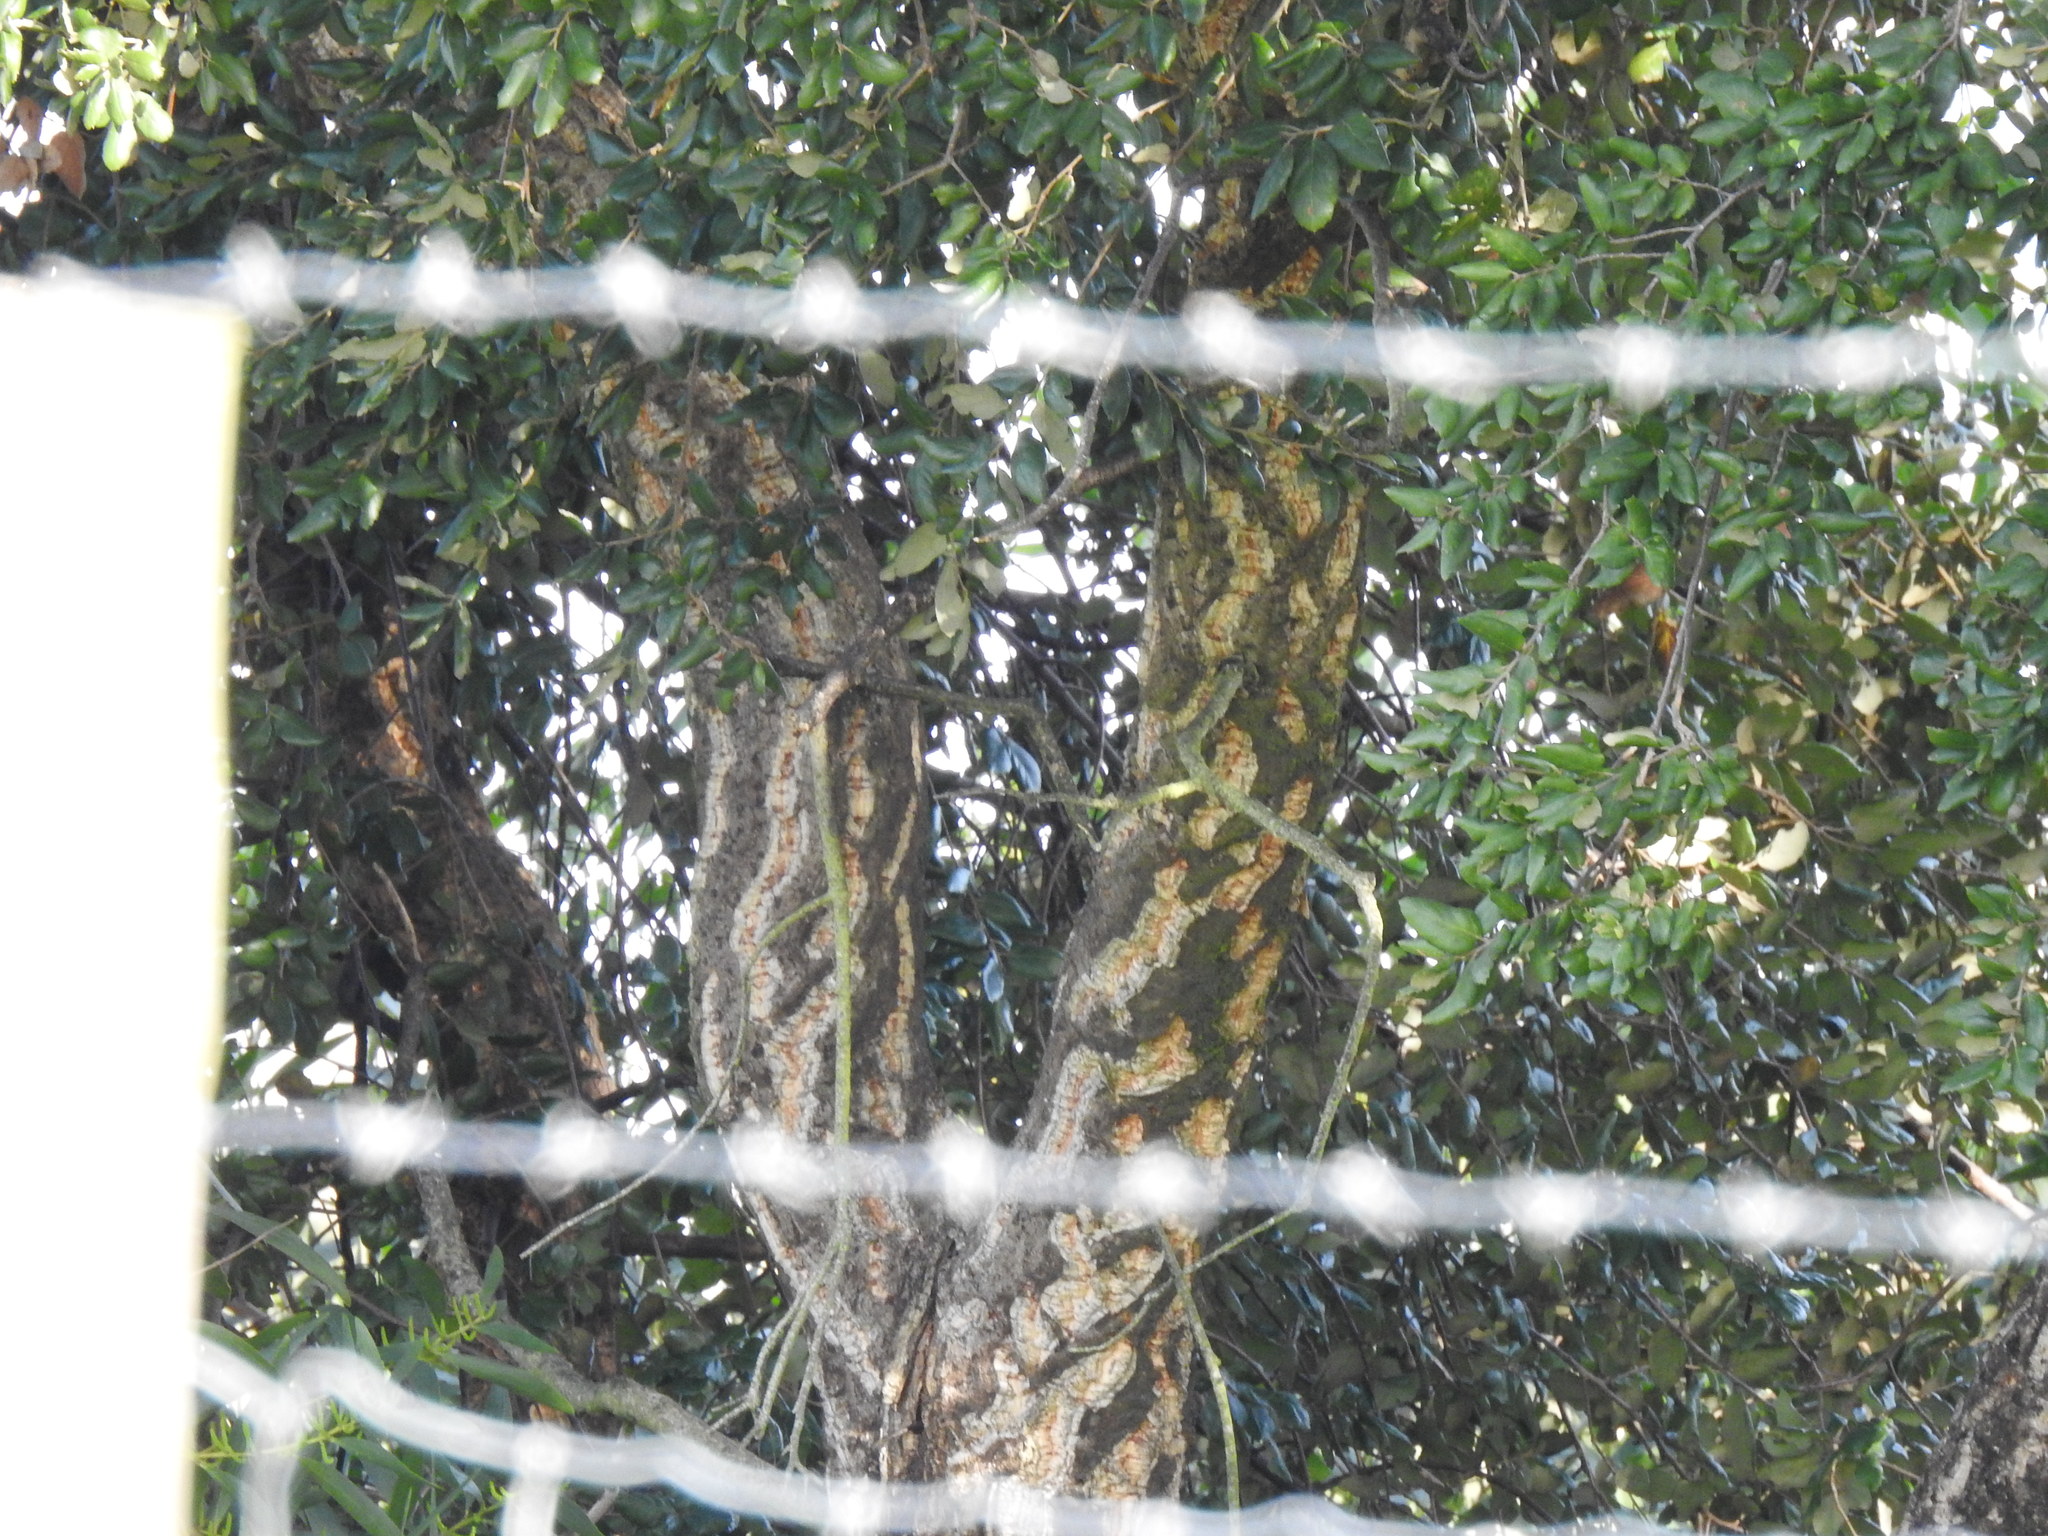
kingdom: Plantae
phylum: Tracheophyta
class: Magnoliopsida
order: Fagales
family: Fagaceae
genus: Quercus
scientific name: Quercus suber
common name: Cork oak
